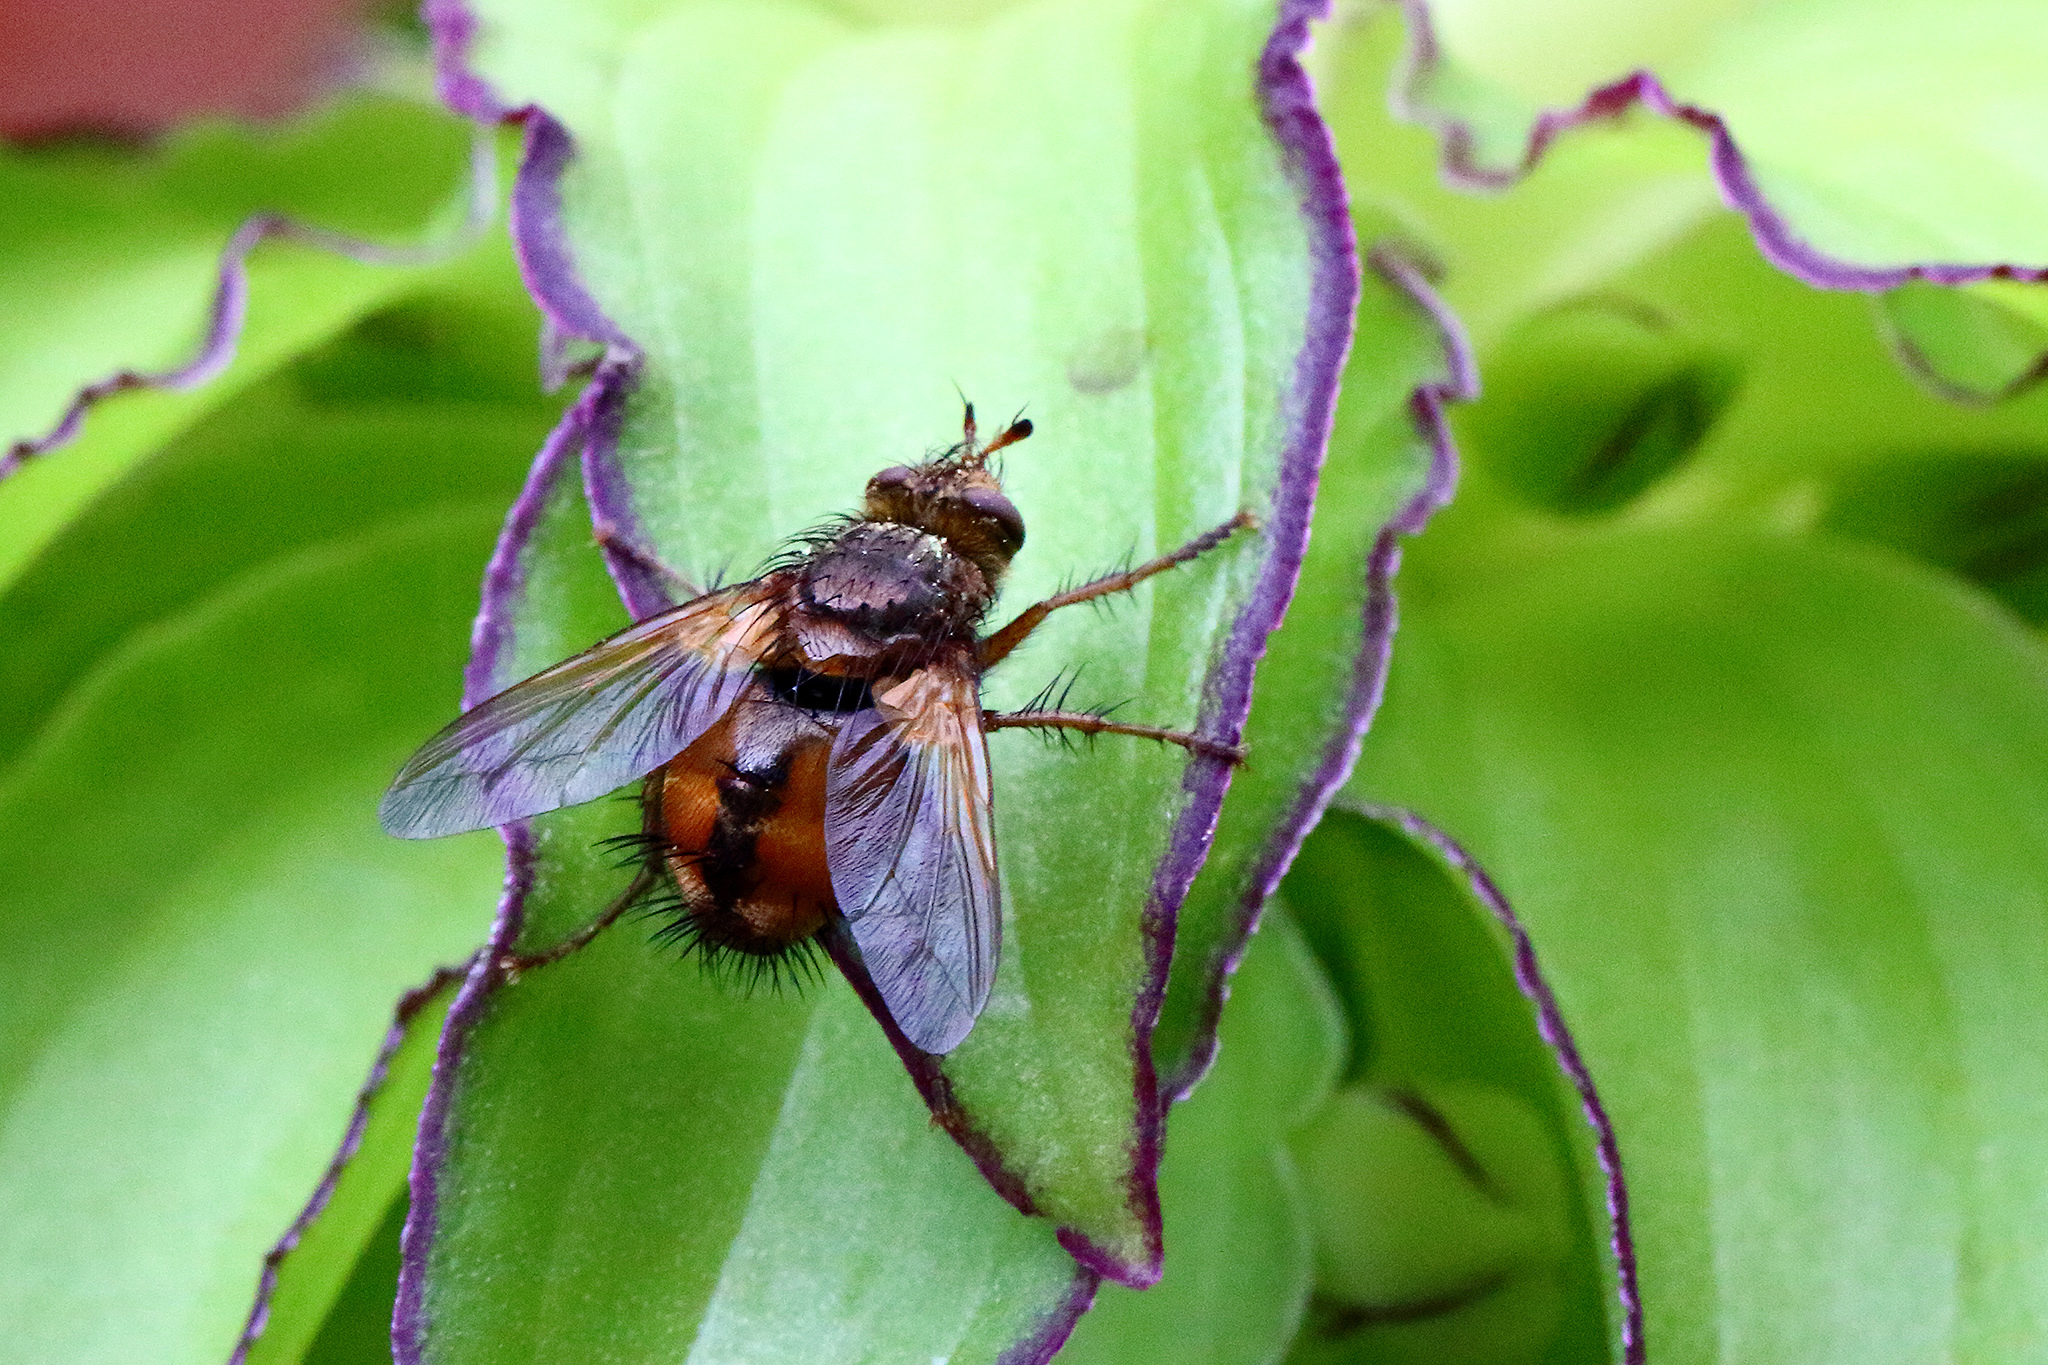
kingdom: Animalia
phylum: Arthropoda
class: Insecta
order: Diptera
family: Tachinidae
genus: Tachina
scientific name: Tachina fera
